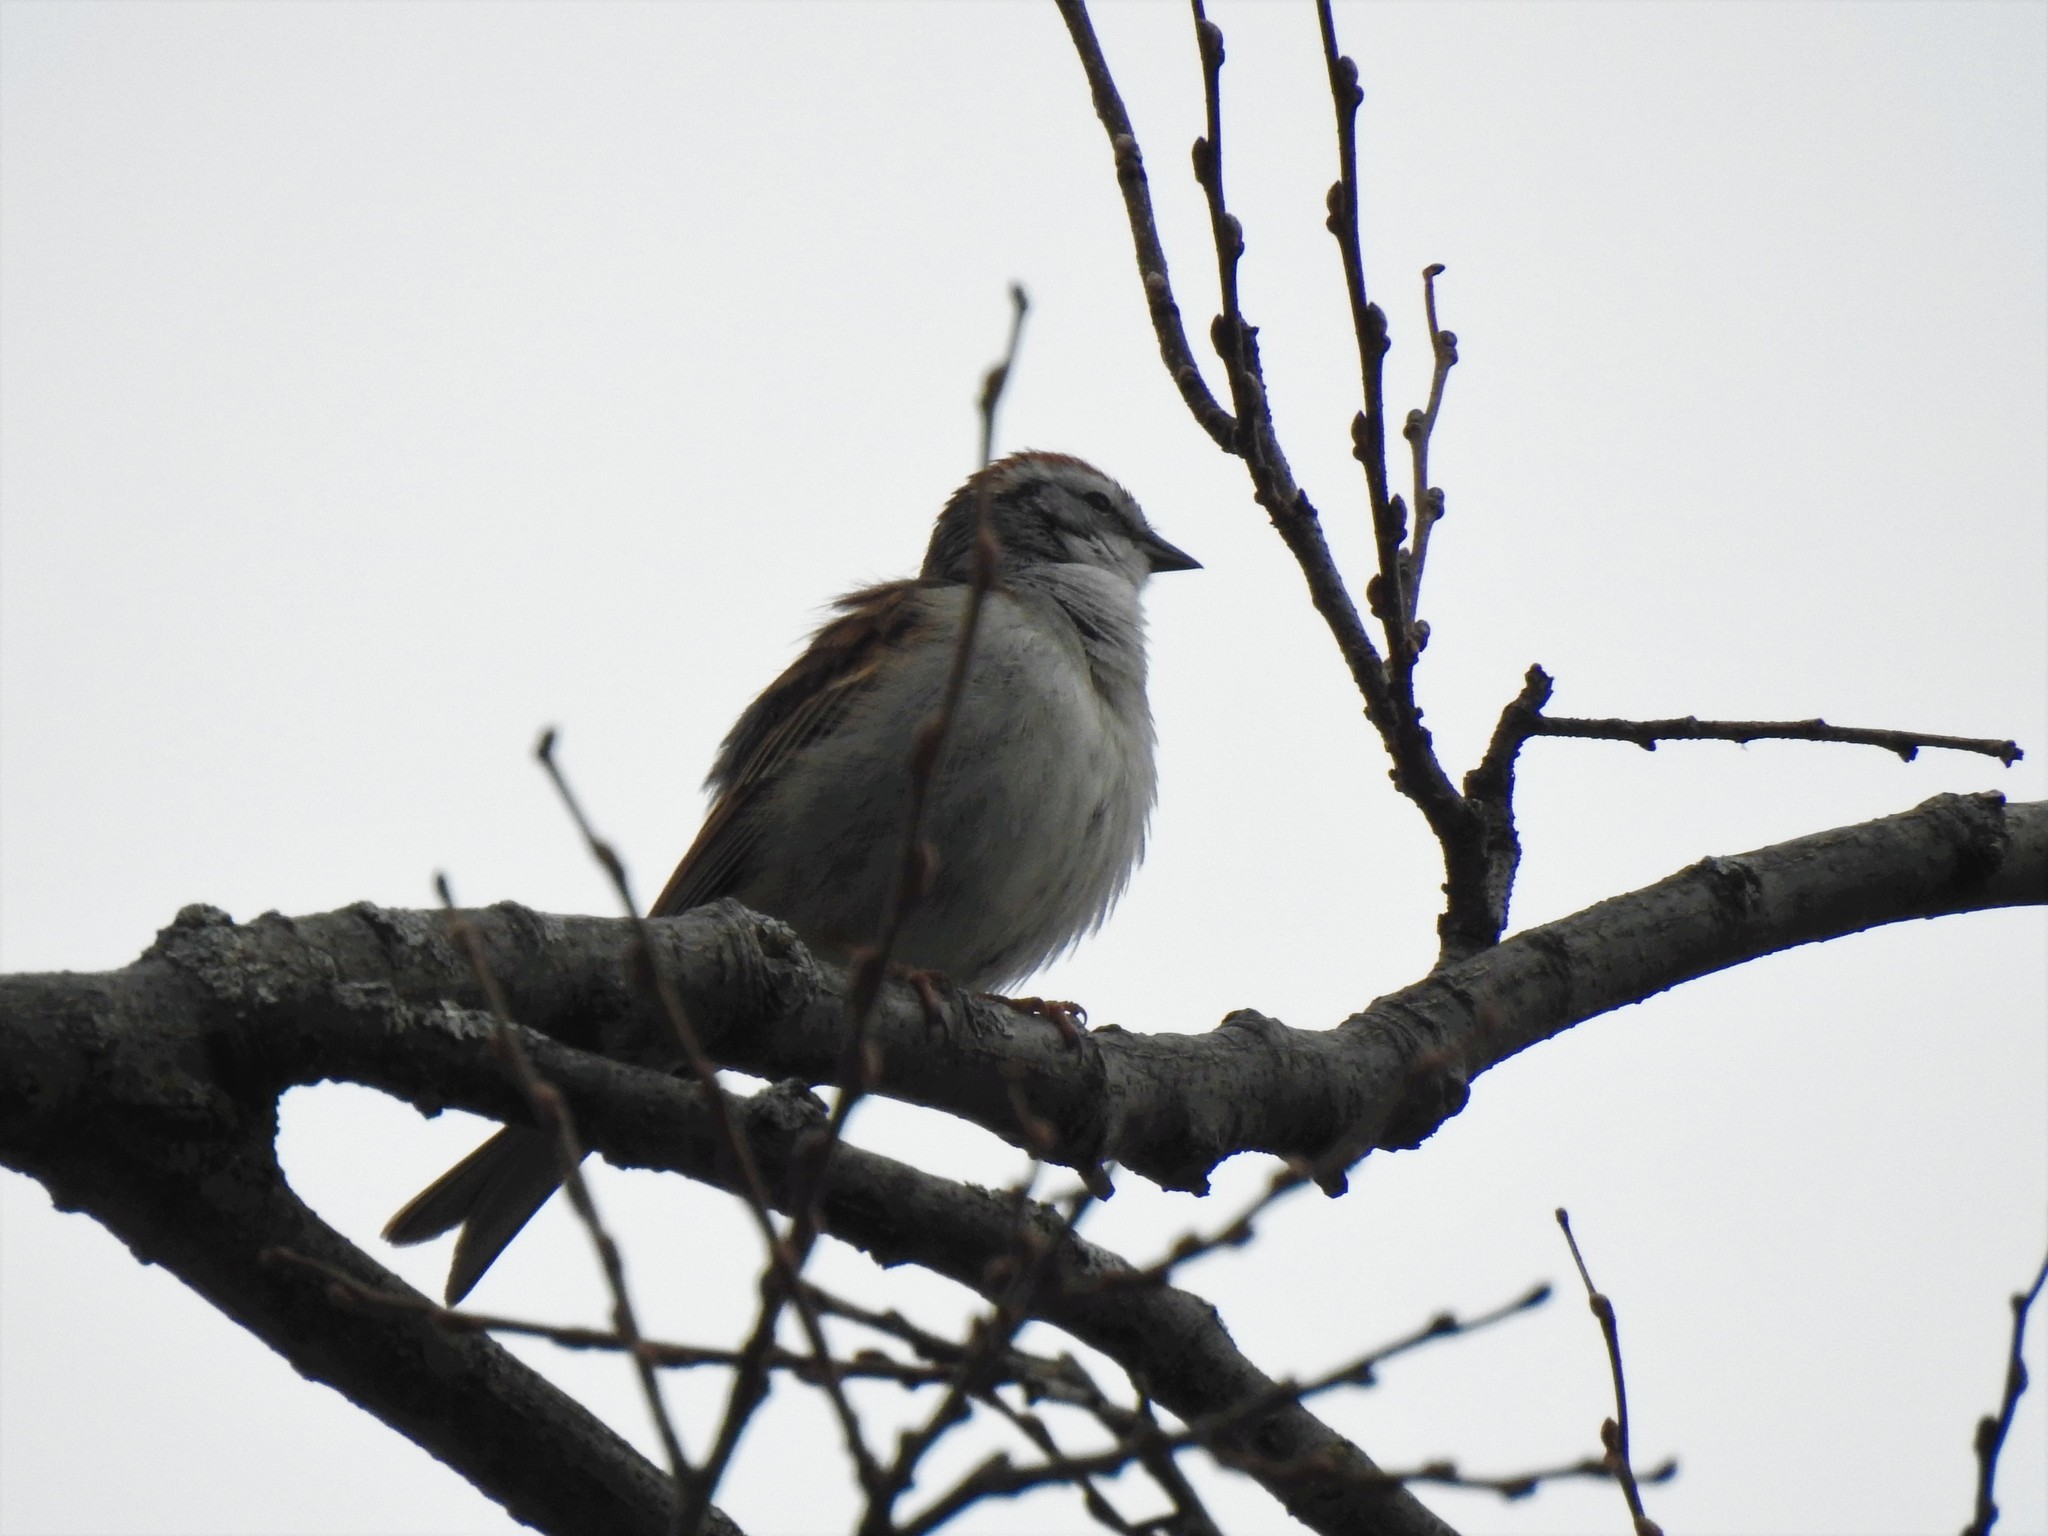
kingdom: Animalia
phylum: Chordata
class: Aves
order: Passeriformes
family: Passerellidae
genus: Spizella
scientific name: Spizella passerina
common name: Chipping sparrow
